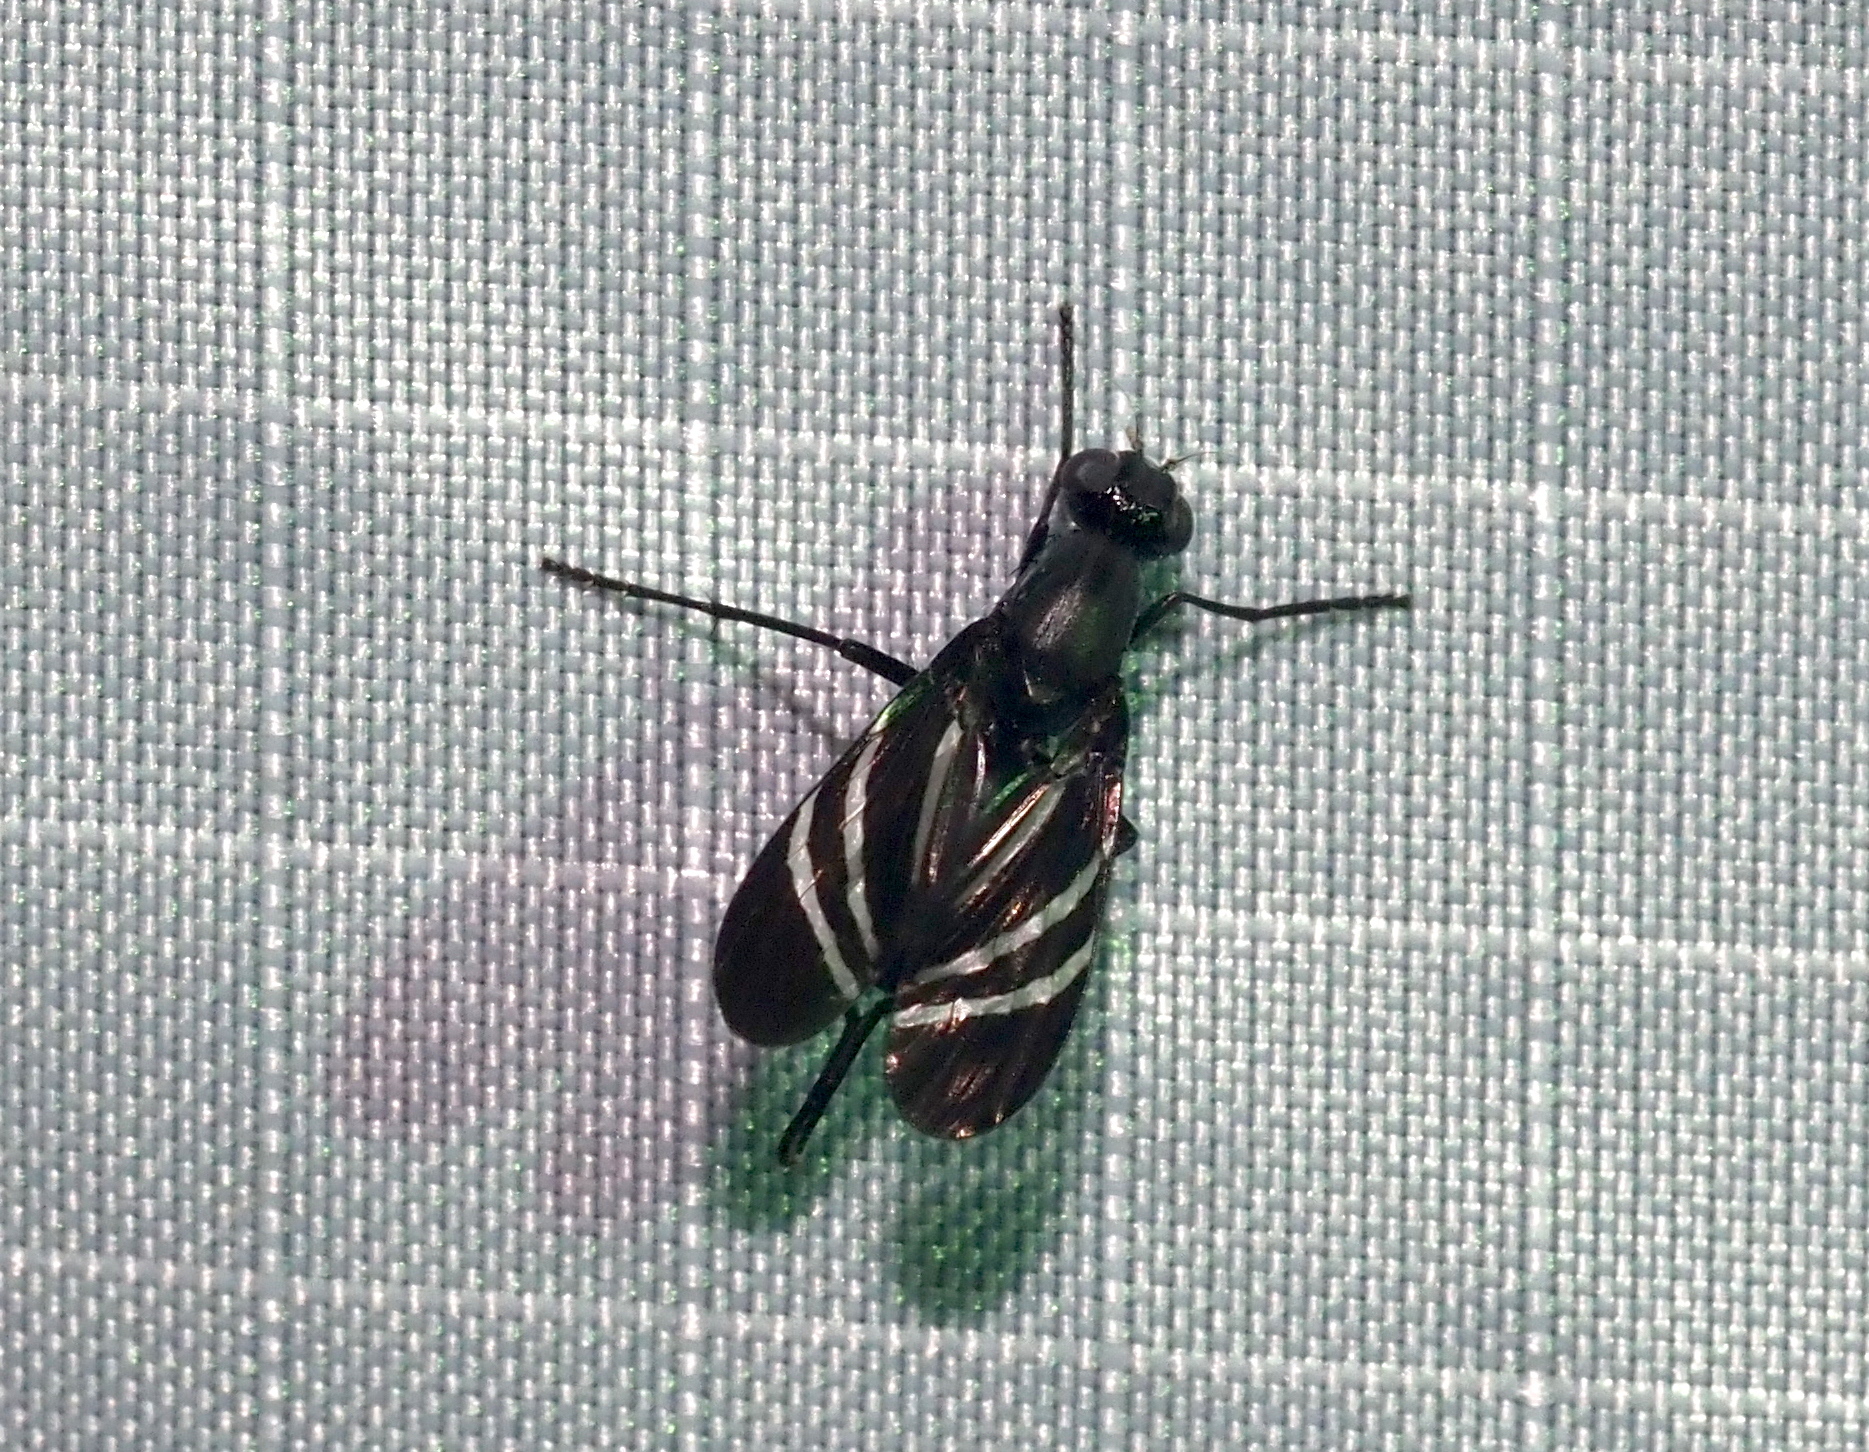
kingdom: Animalia
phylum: Arthropoda
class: Insecta
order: Diptera
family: Ulidiidae
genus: Tritoxa
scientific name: Tritoxa flexa
